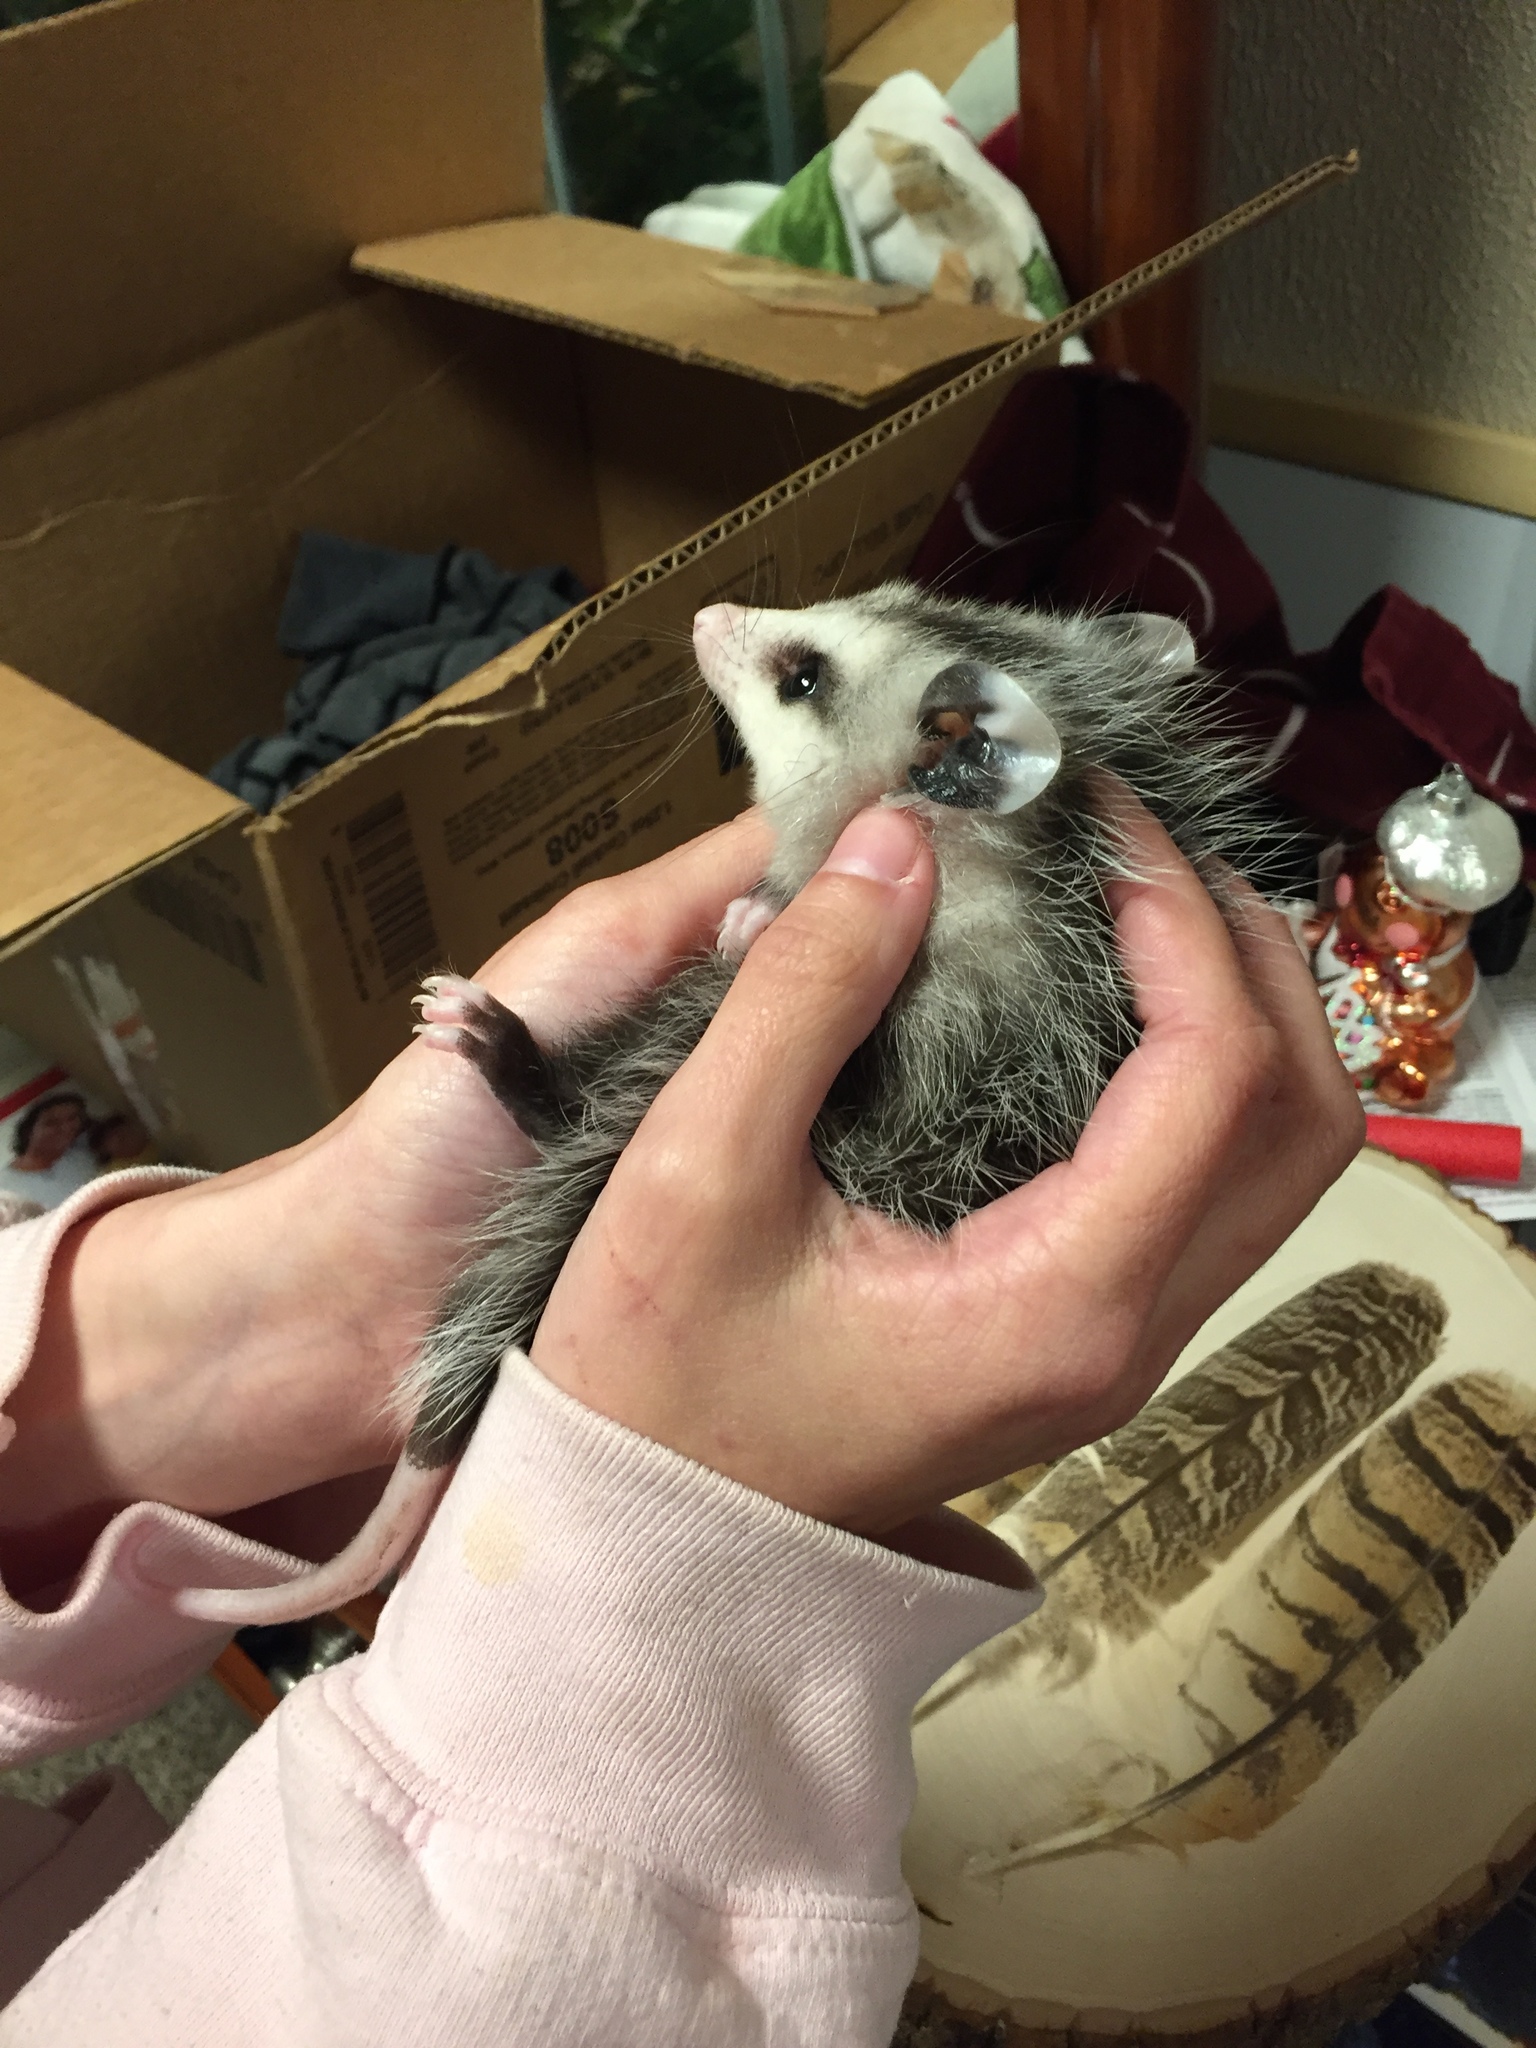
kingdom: Animalia
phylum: Chordata
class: Mammalia
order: Didelphimorphia
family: Didelphidae
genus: Didelphis
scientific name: Didelphis virginiana
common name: Virginia opossum
